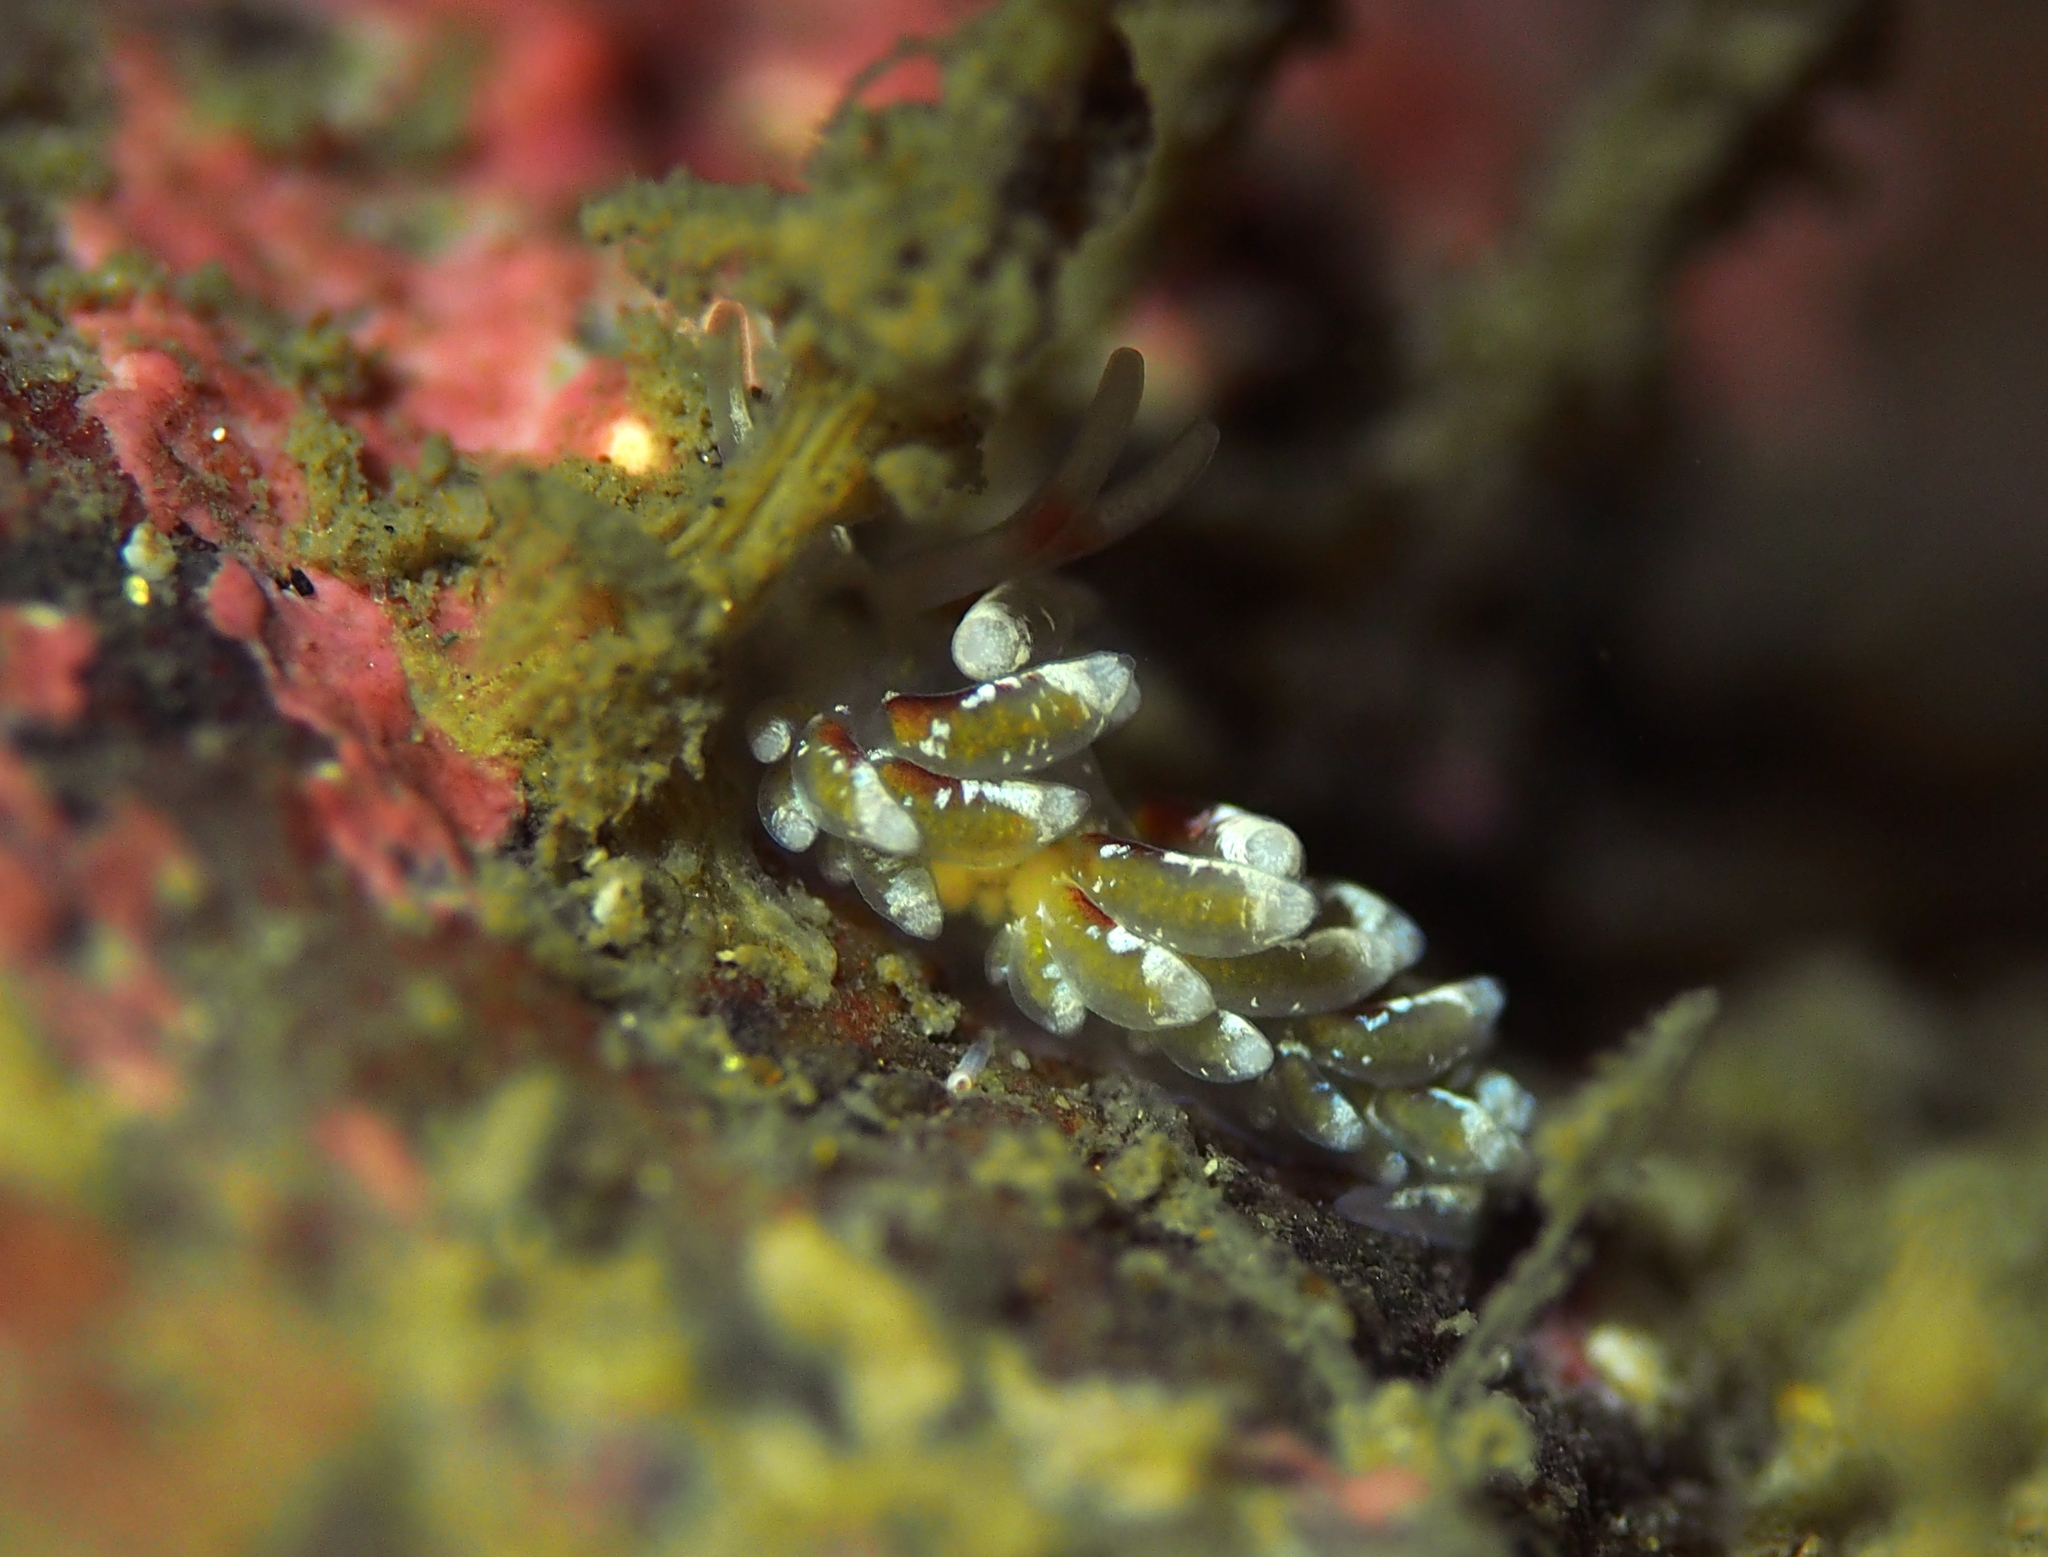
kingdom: Animalia
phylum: Mollusca
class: Gastropoda
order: Nudibranchia
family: Trinchesiidae
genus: Rubramoena
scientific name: Rubramoena rubescens
